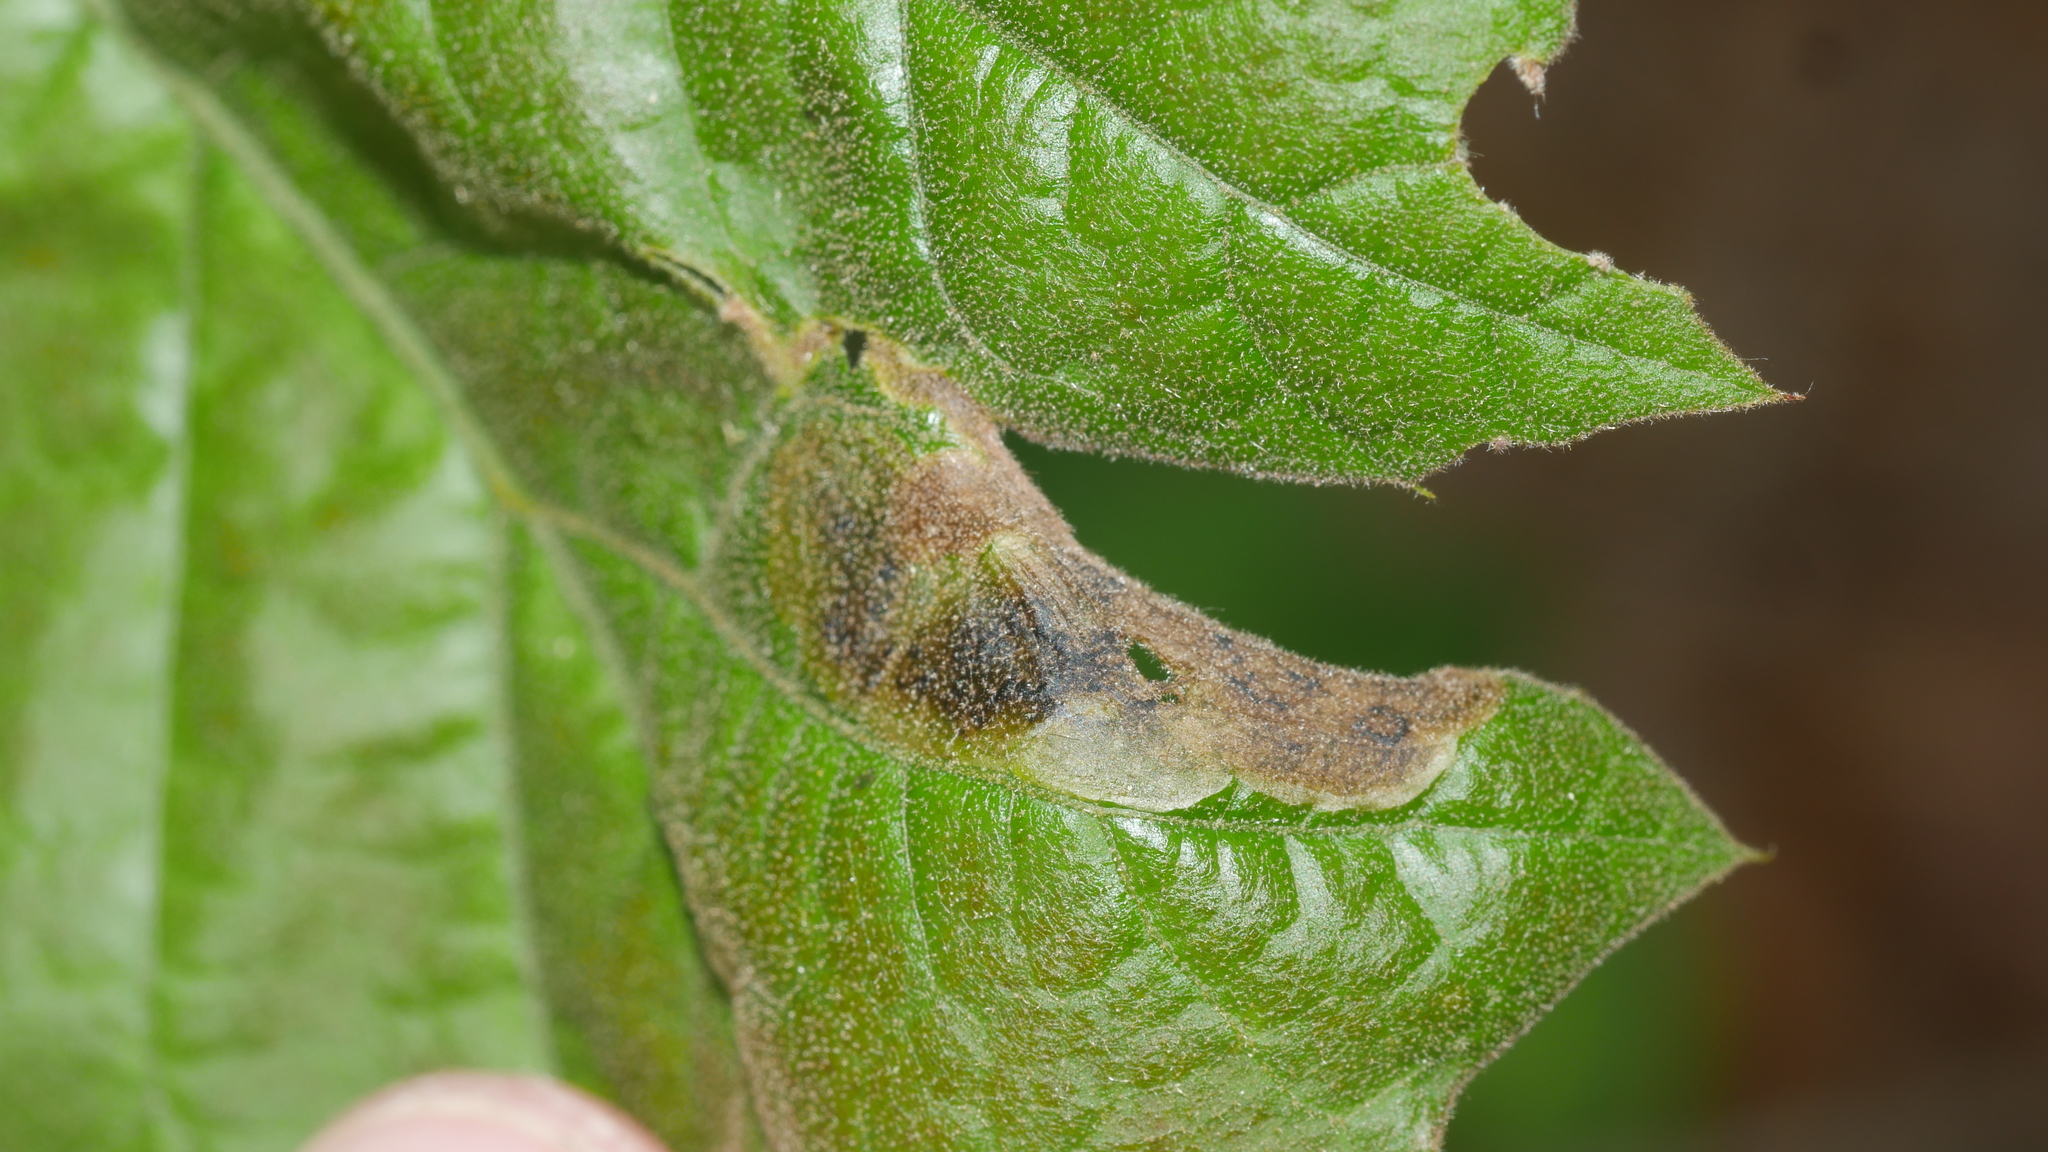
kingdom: Animalia
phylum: Arthropoda
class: Insecta
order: Diptera
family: Agromyzidae
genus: Japanagromyza
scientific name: Japanagromyza viridula
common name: Oak shothole leafminer
